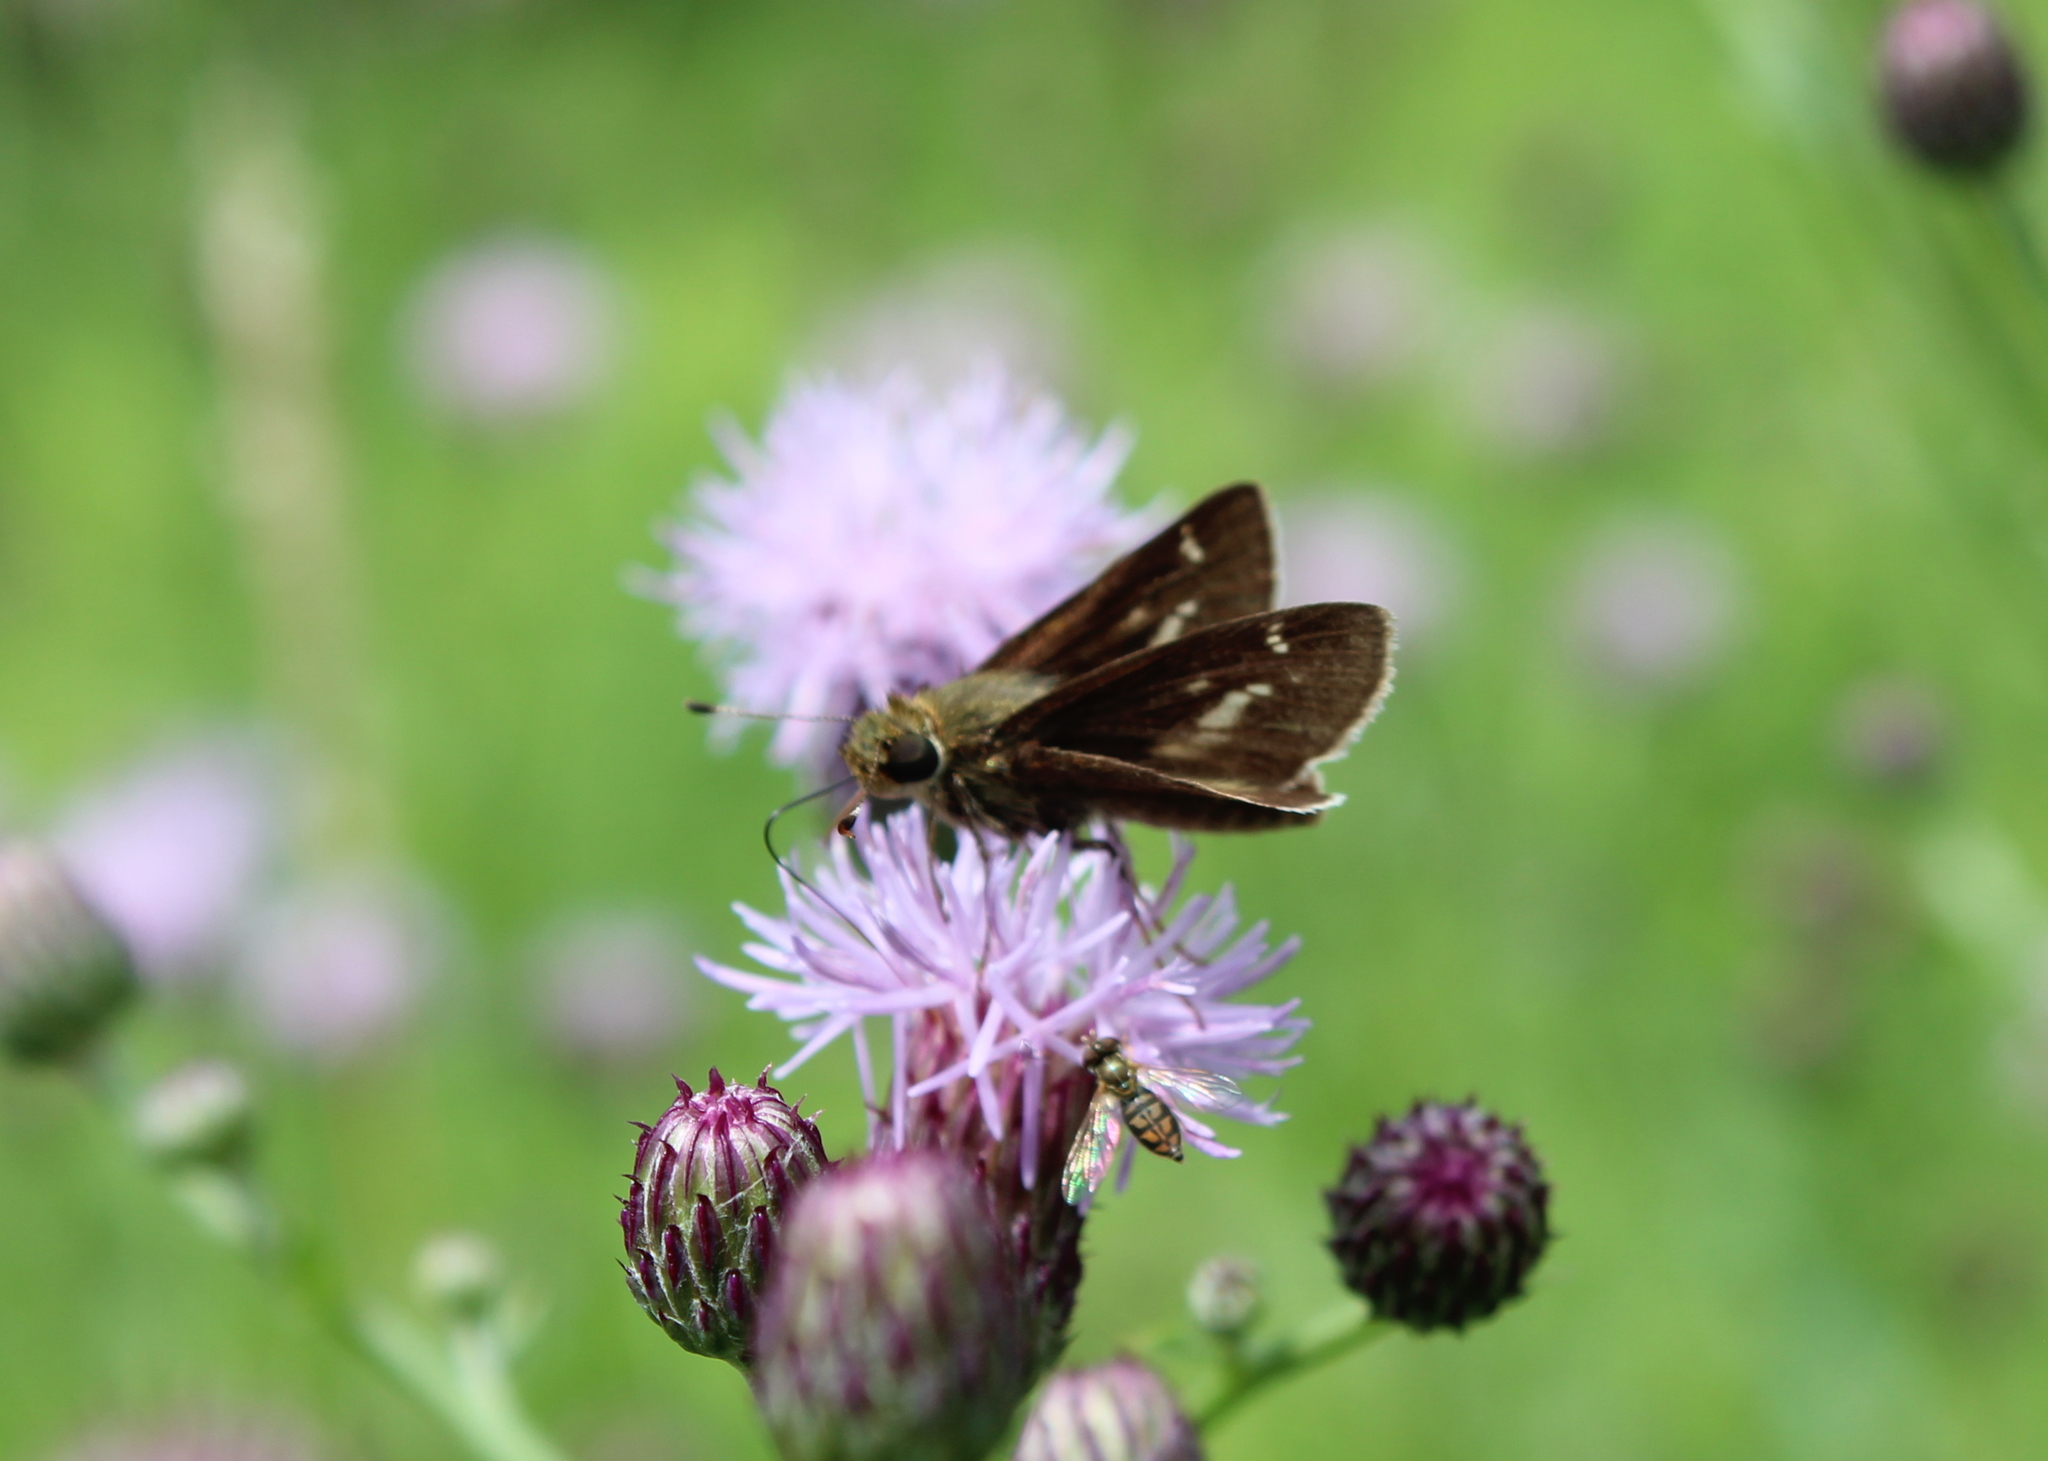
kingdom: Animalia
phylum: Arthropoda
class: Insecta
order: Lepidoptera
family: Hesperiidae
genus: Vernia
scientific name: Vernia verna
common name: Little glassywing
